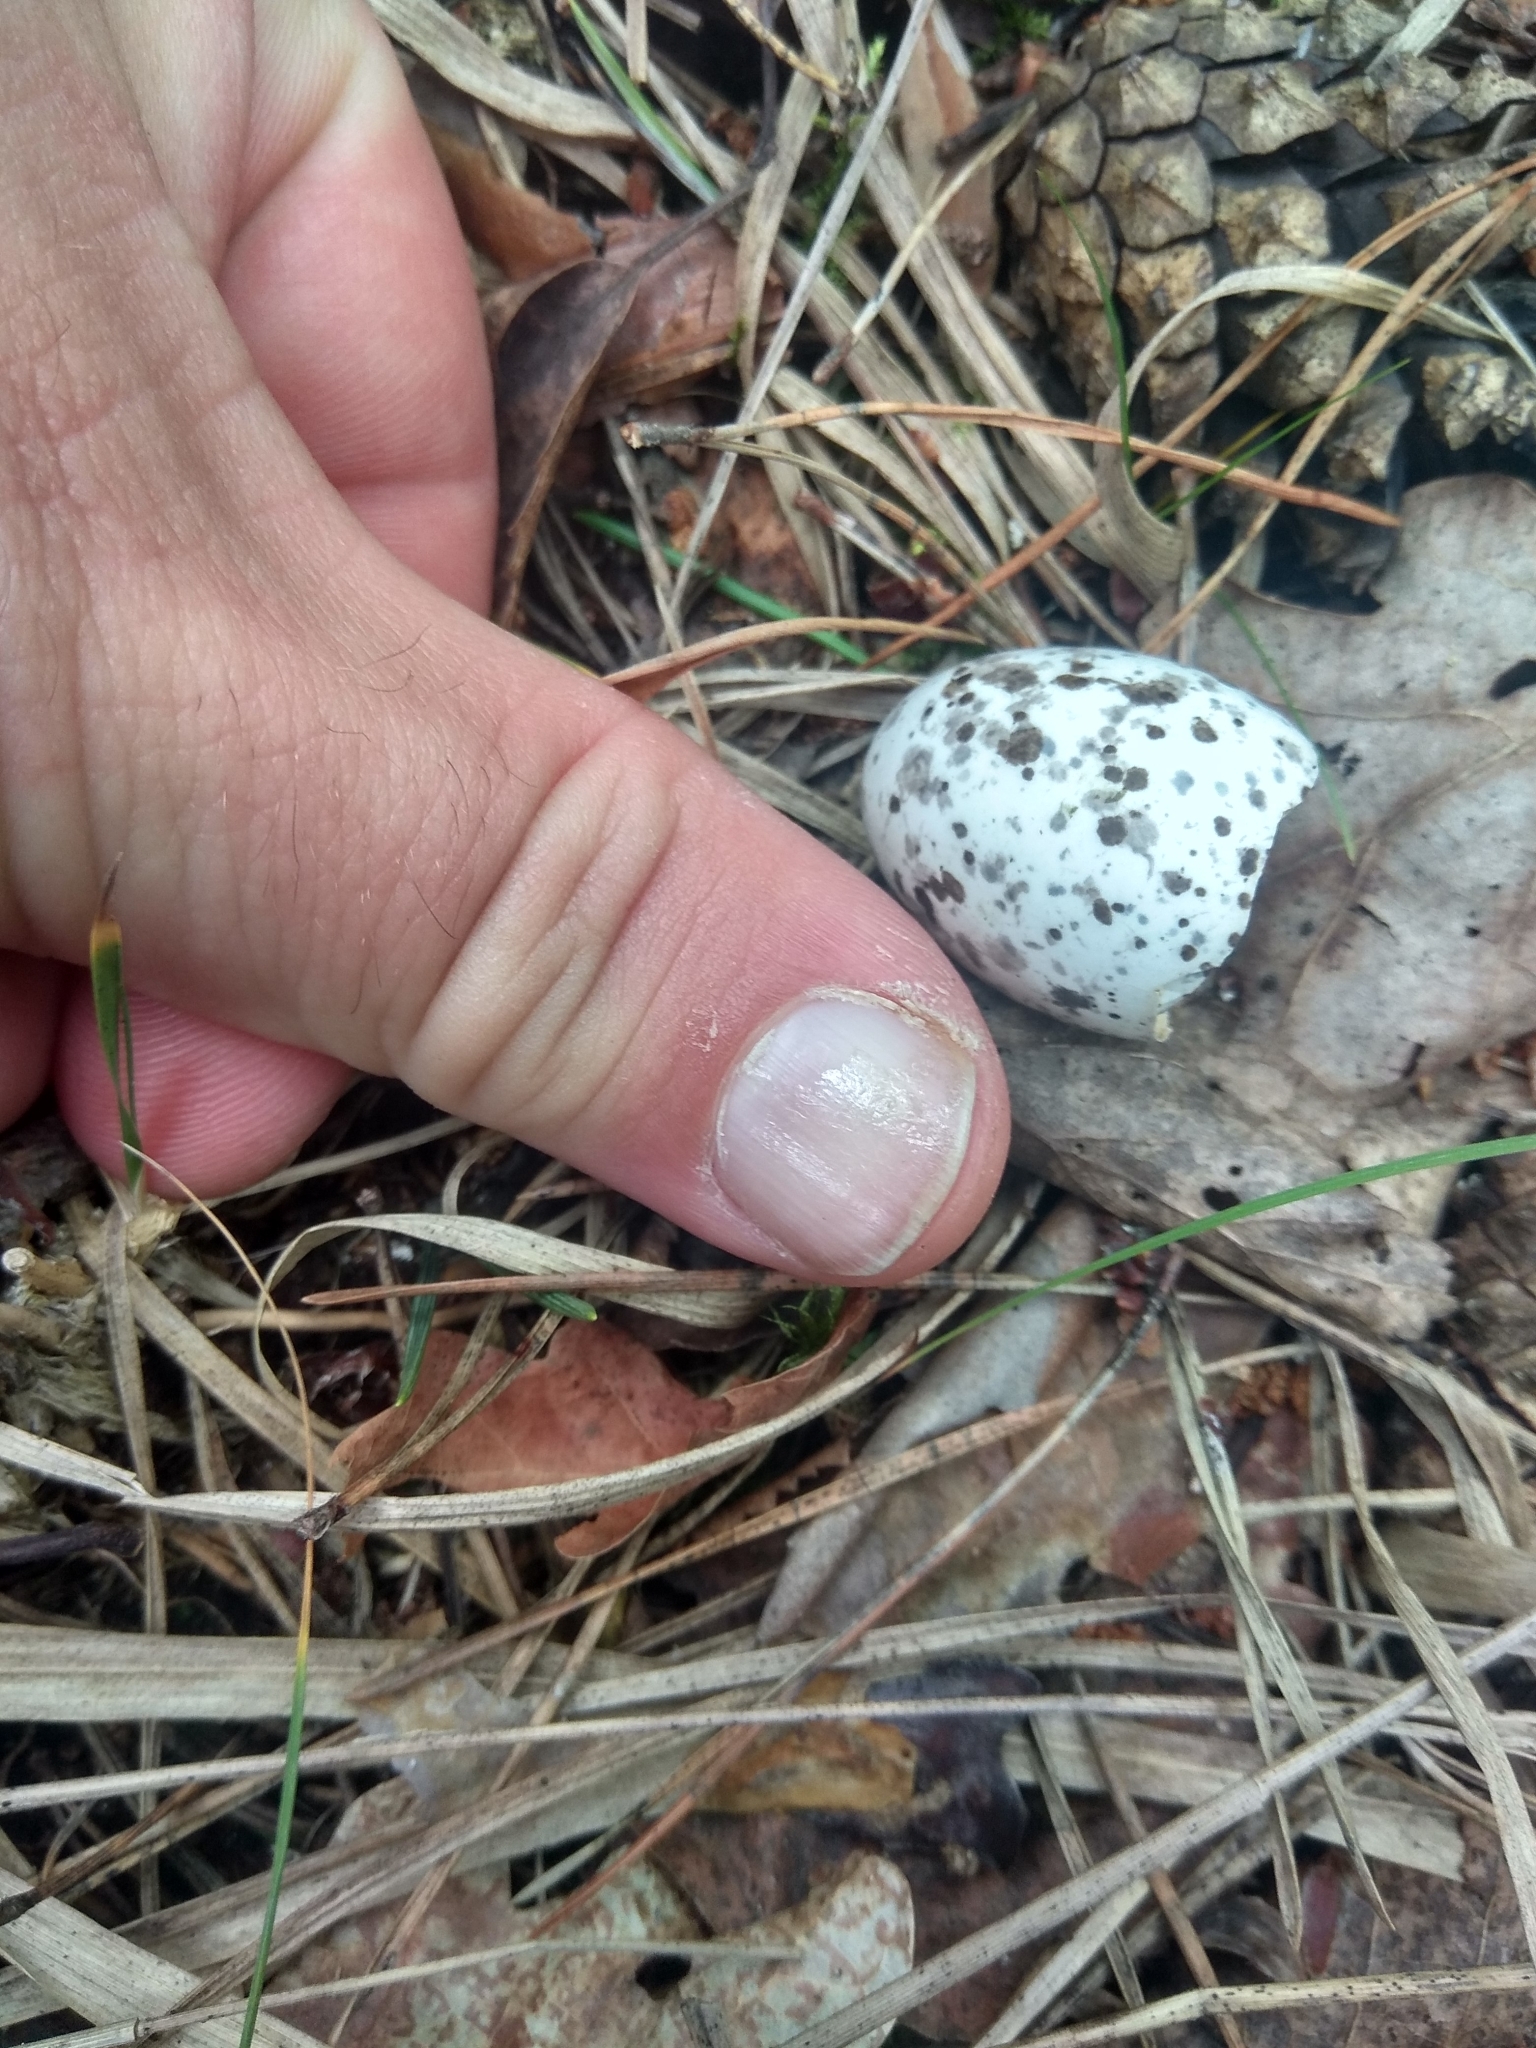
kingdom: Animalia
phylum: Chordata
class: Aves
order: Caprimulgiformes
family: Caprimulgidae
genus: Caprimulgus
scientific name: Caprimulgus europaeus
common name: European nightjar
